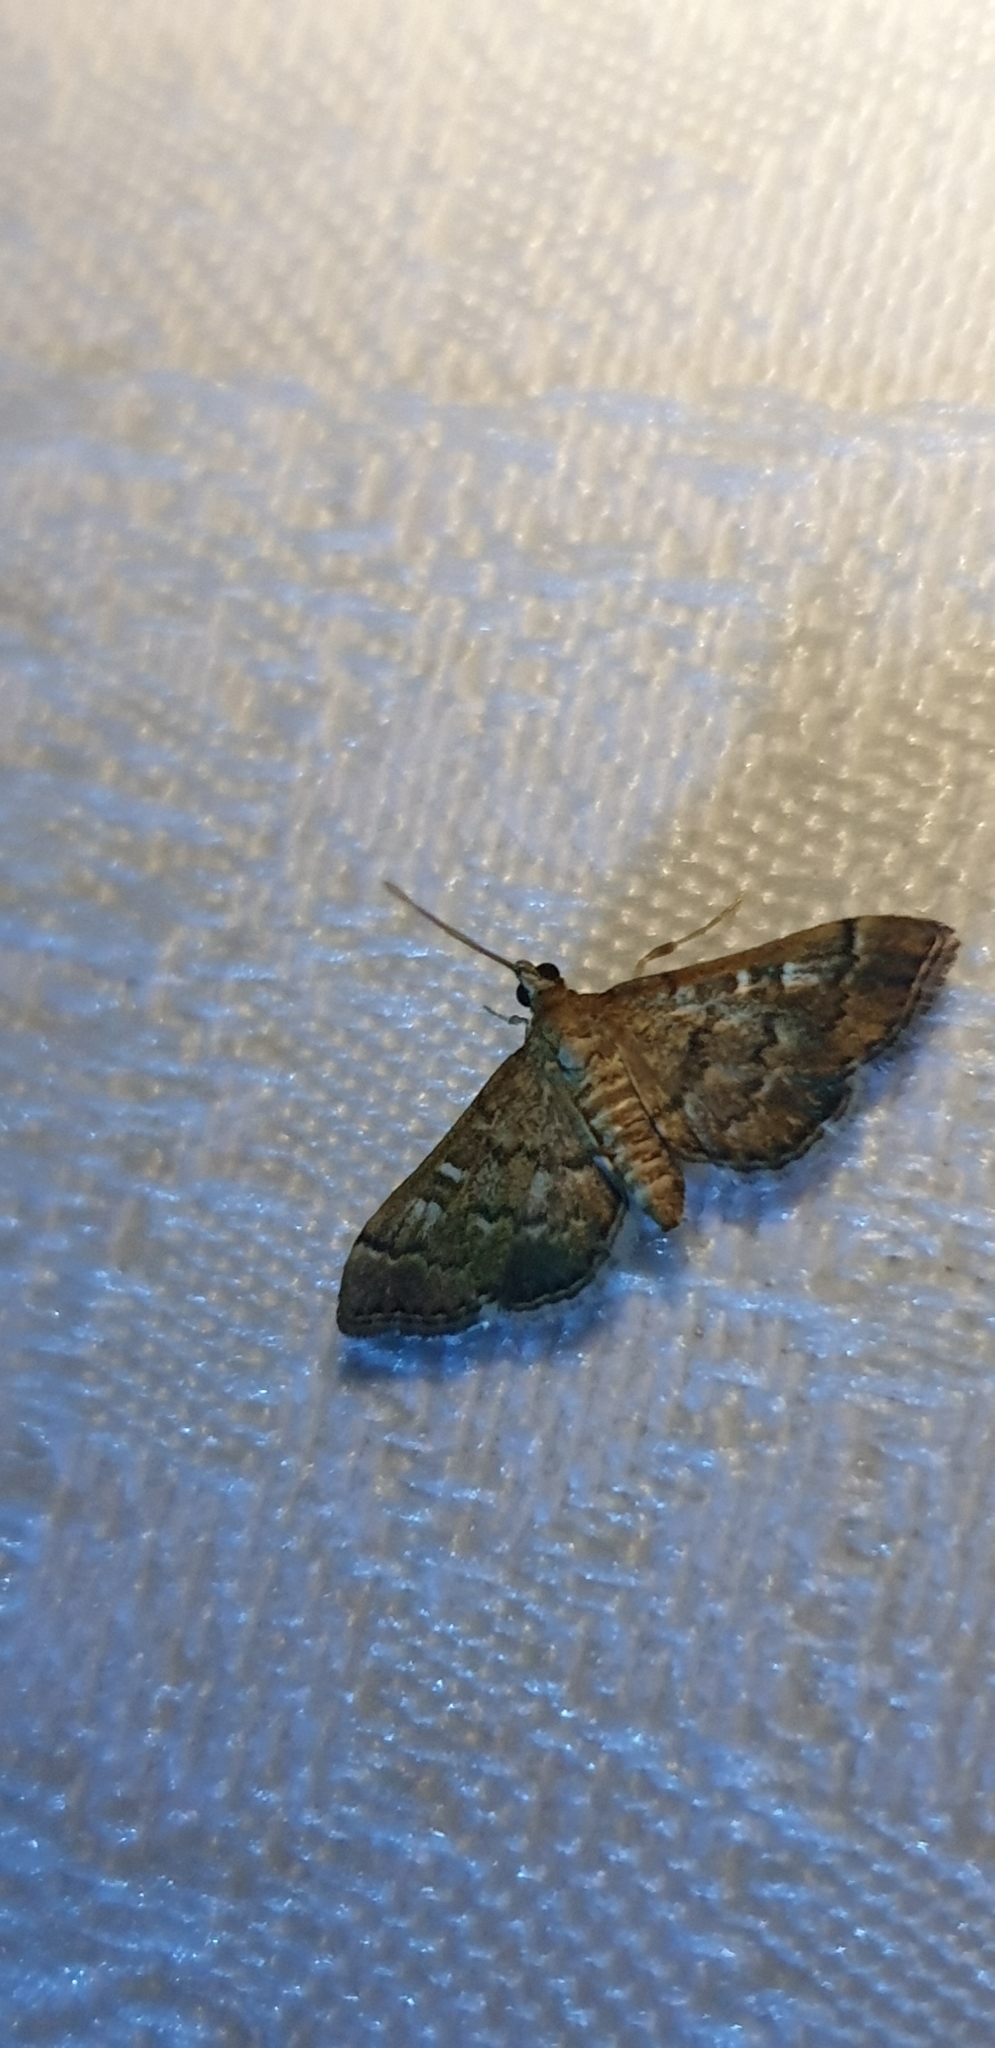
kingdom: Animalia
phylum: Arthropoda
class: Insecta
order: Lepidoptera
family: Crambidae
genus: Nacoleia
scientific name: Nacoleia rhoeoalis
